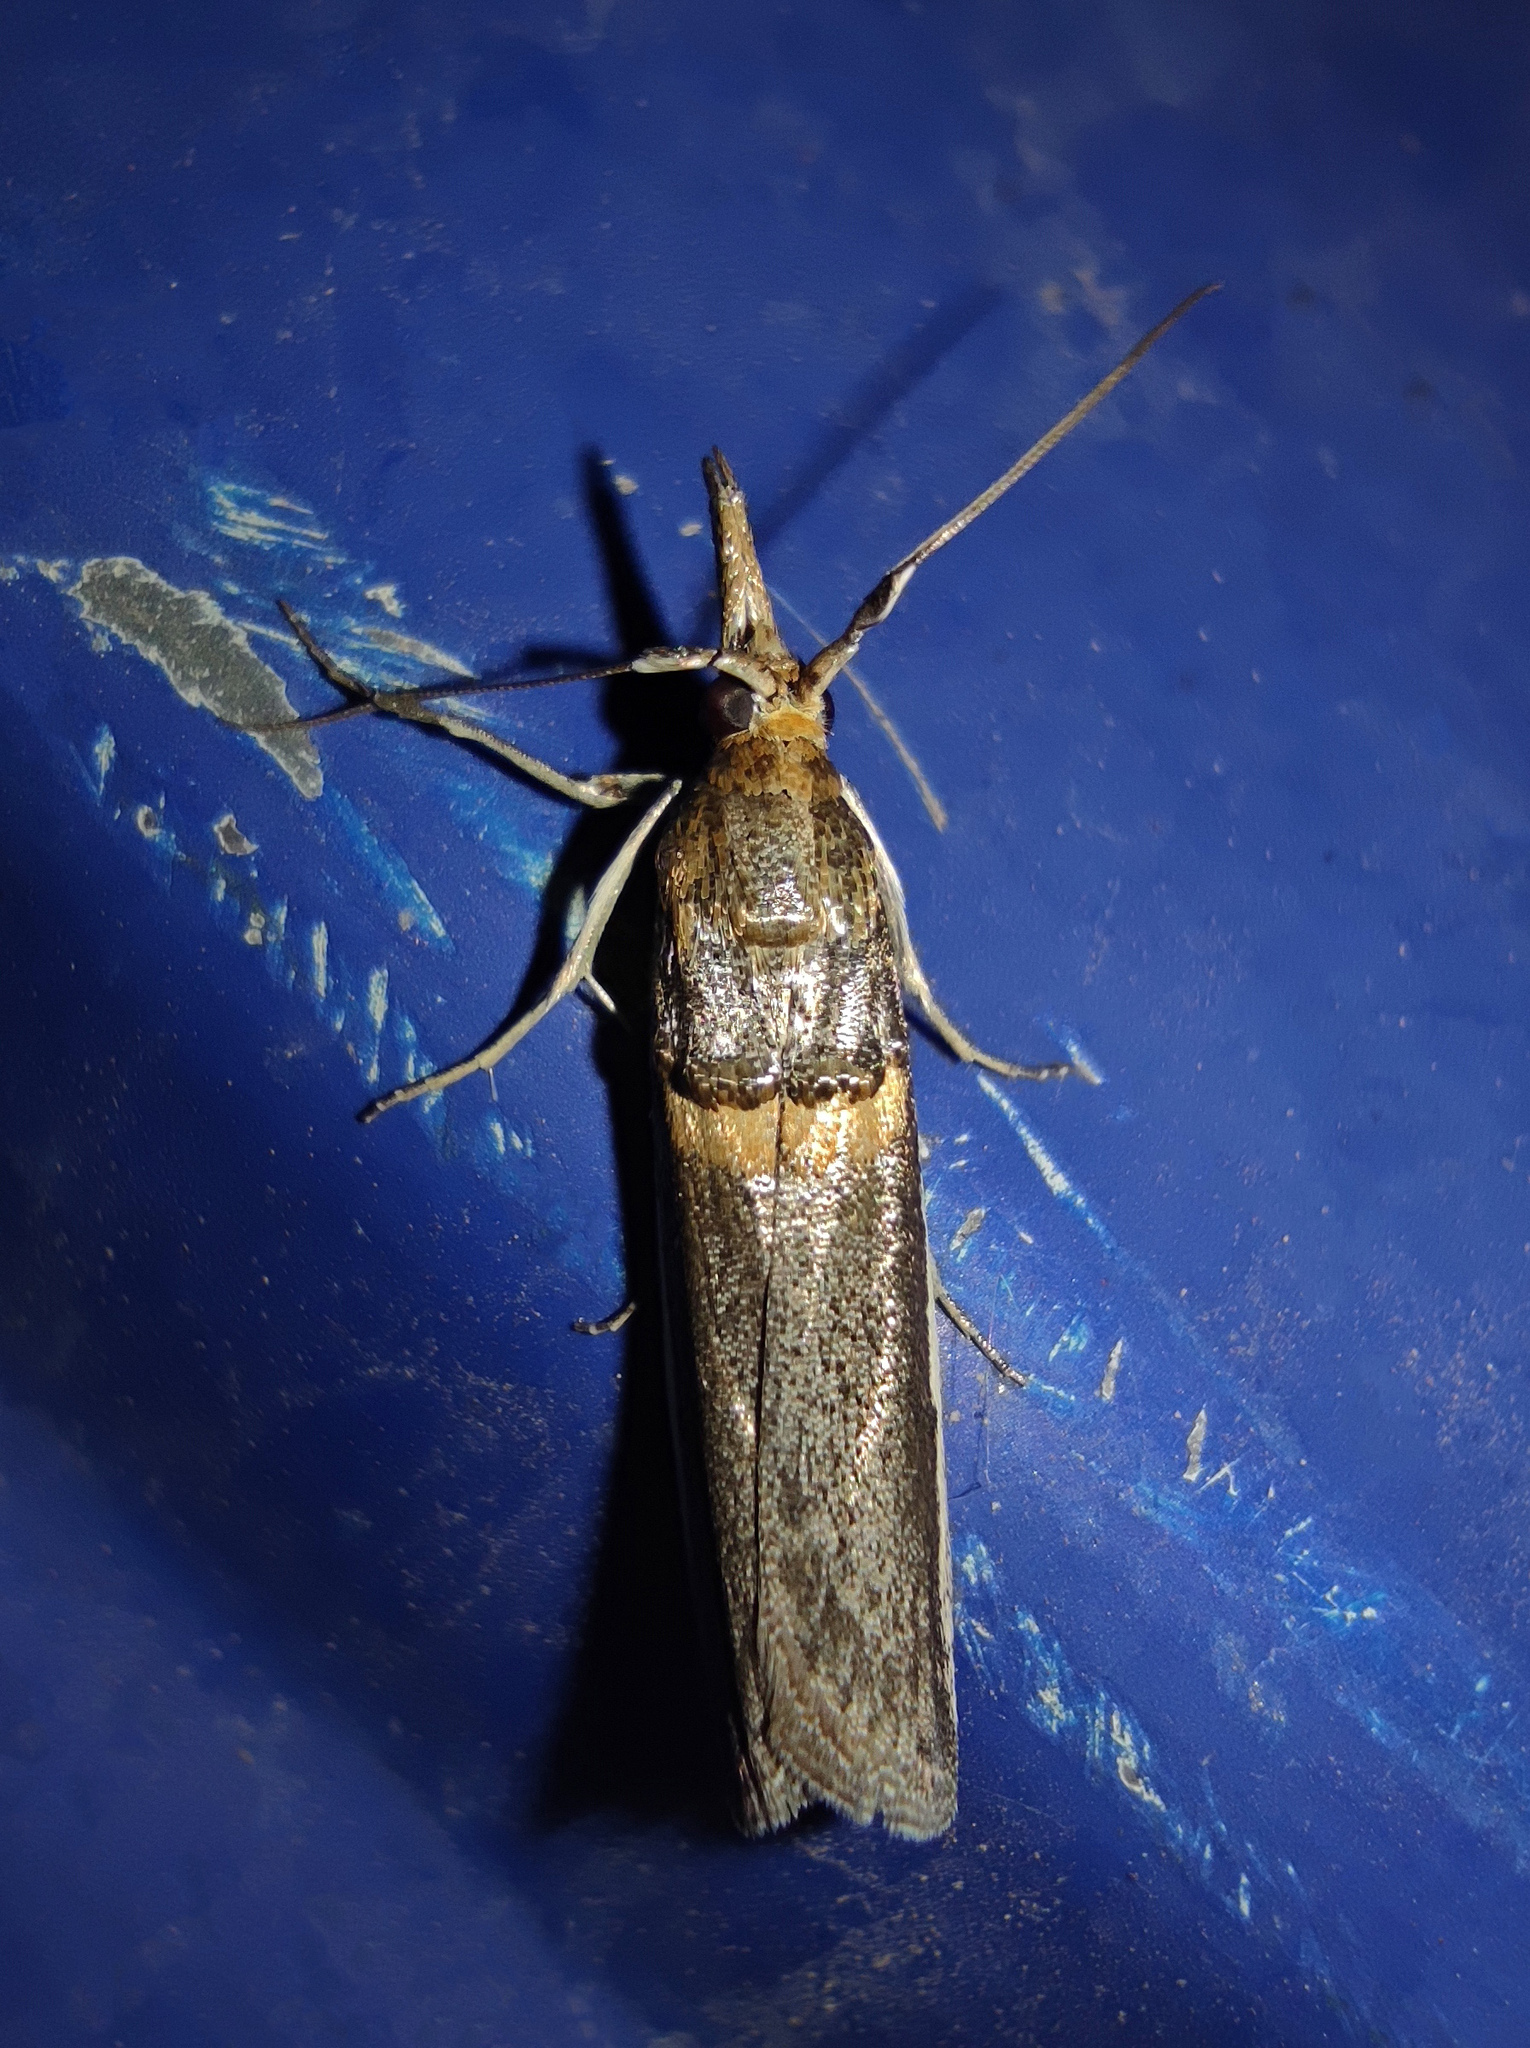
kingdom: Animalia
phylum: Arthropoda
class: Insecta
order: Lepidoptera
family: Pyralidae
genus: Etiella
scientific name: Etiella zinckenella
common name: Gold-banded etiella moth
